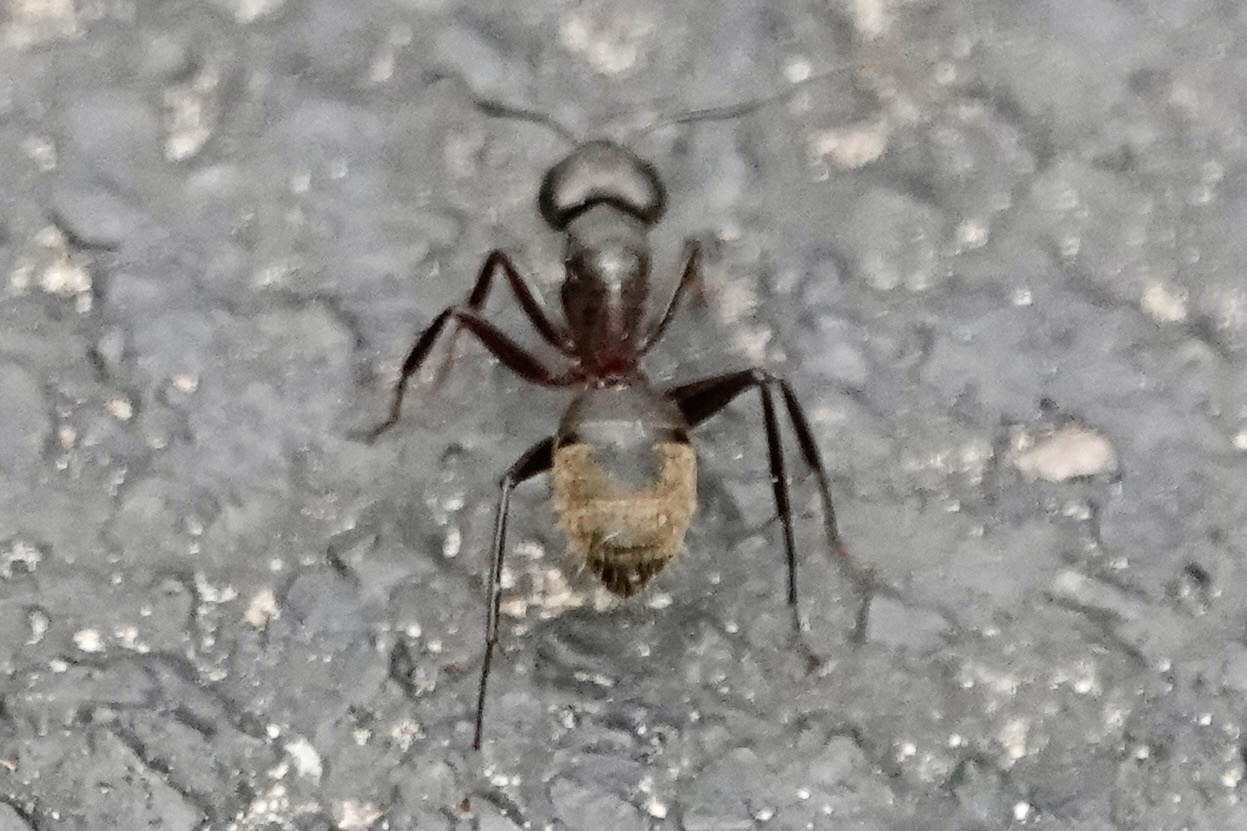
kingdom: Animalia
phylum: Arthropoda
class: Insecta
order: Hymenoptera
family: Formicidae
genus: Camponotus
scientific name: Camponotus chromaiodes
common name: Red carpenter ant
